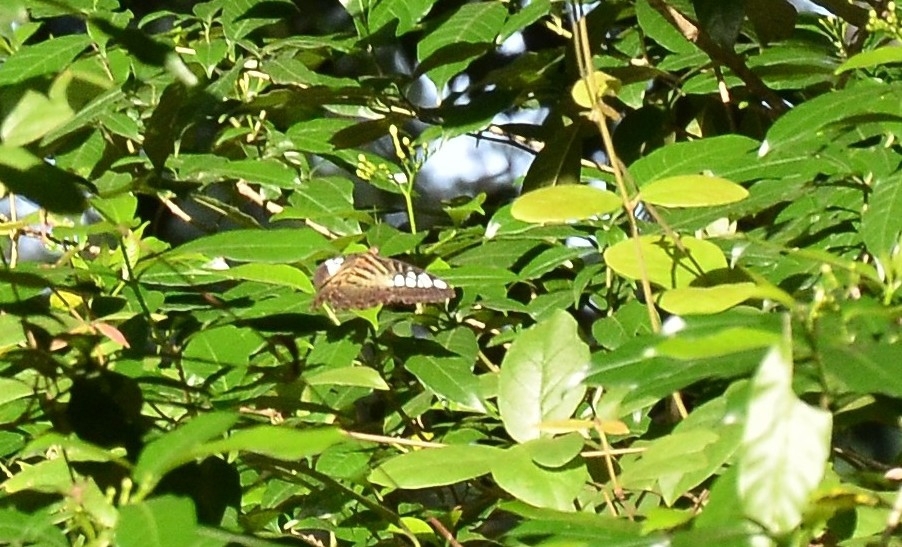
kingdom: Animalia
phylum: Arthropoda
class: Insecta
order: Lepidoptera
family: Nymphalidae
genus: Kallima
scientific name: Kallima sylvia
